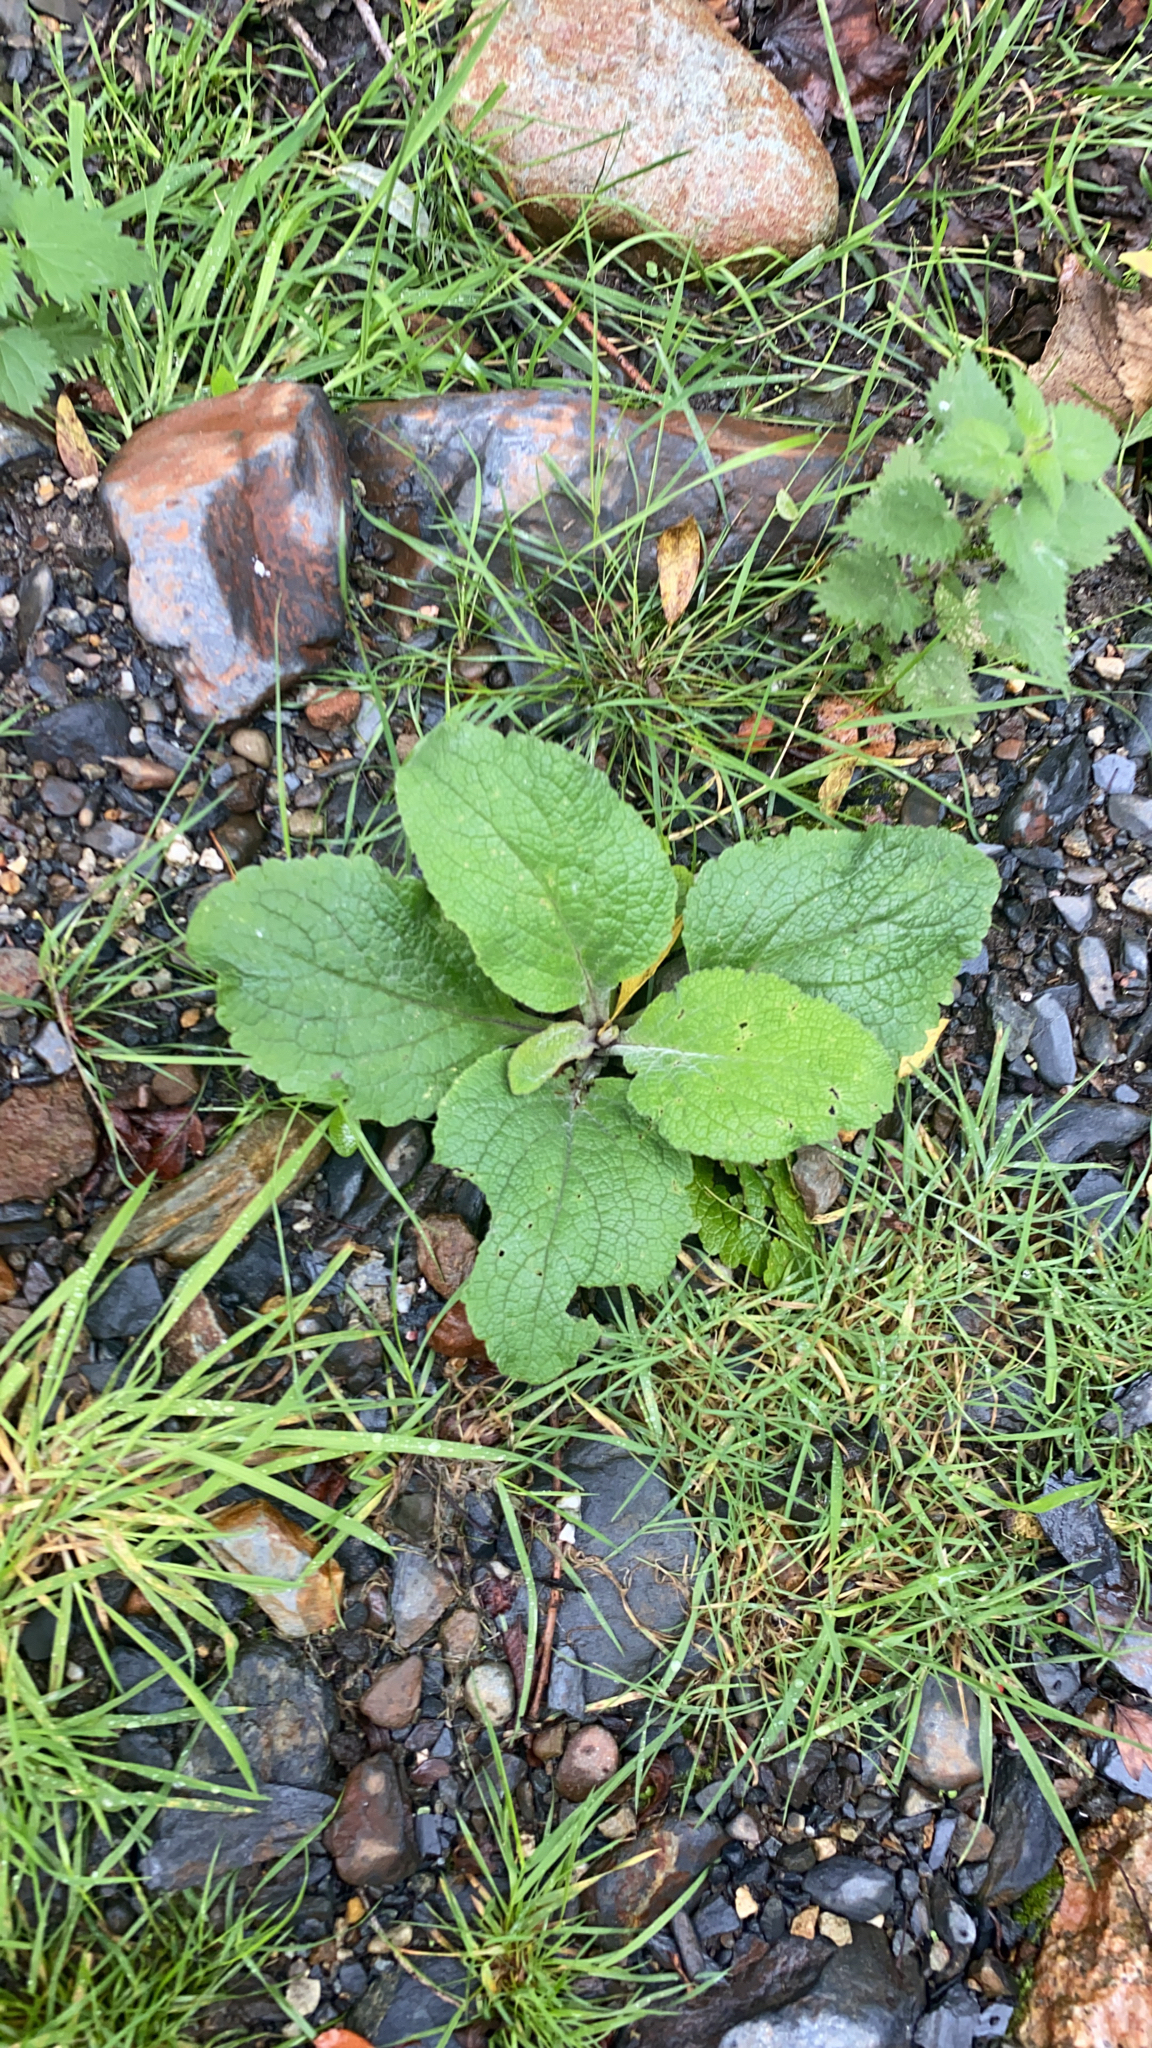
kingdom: Plantae
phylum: Tracheophyta
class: Magnoliopsida
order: Lamiales
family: Plantaginaceae
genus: Digitalis
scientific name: Digitalis purpurea
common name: Foxglove
